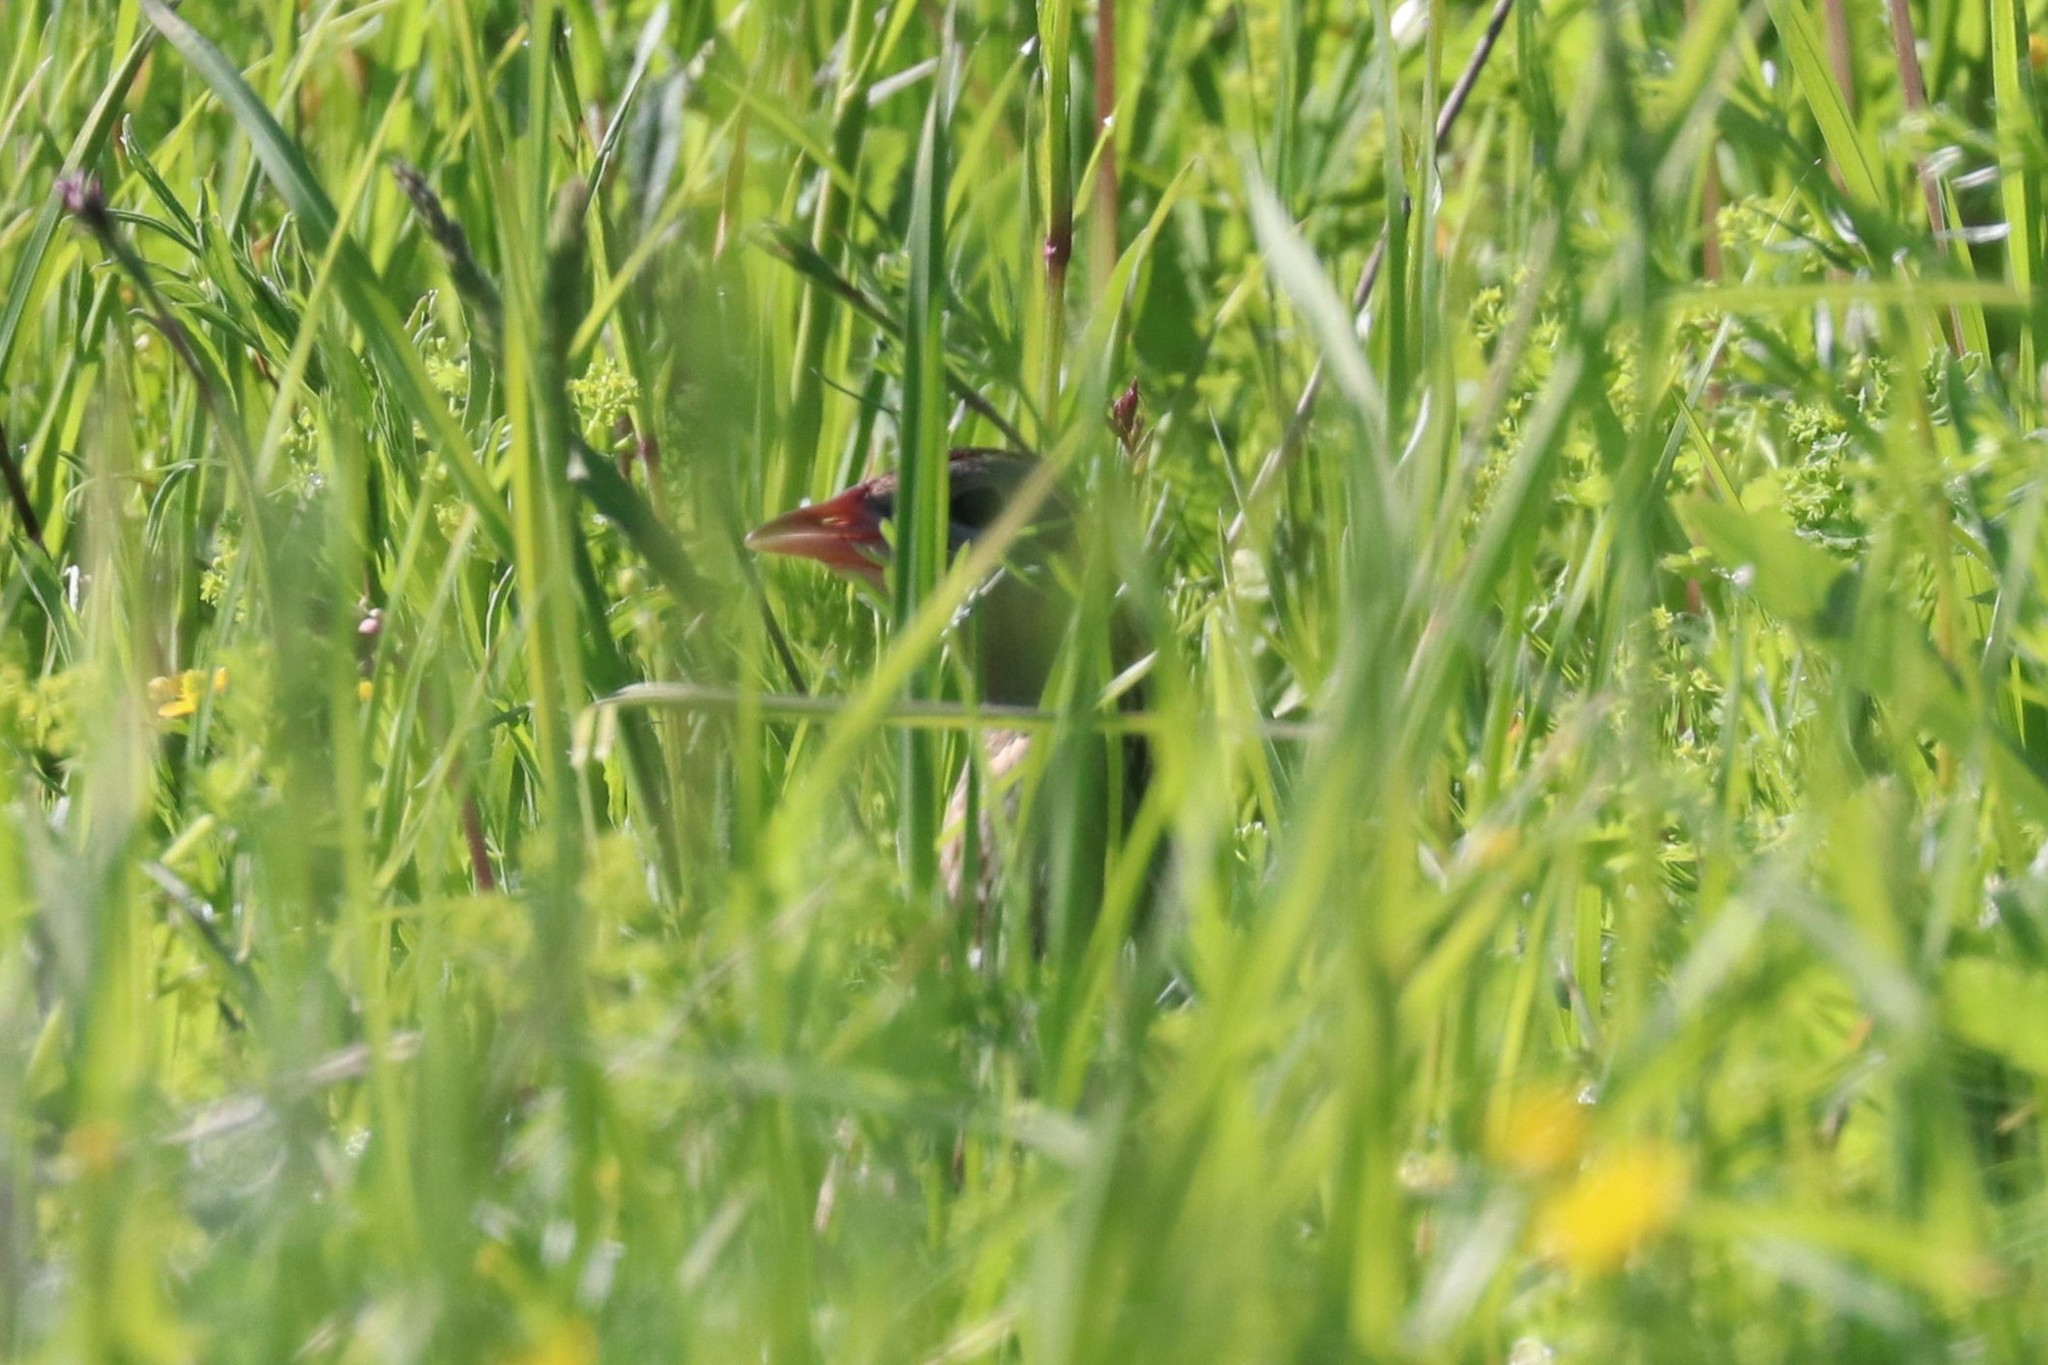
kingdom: Animalia
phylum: Chordata
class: Aves
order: Gruiformes
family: Rallidae
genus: Crex
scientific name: Crex crex
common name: Corn crake
